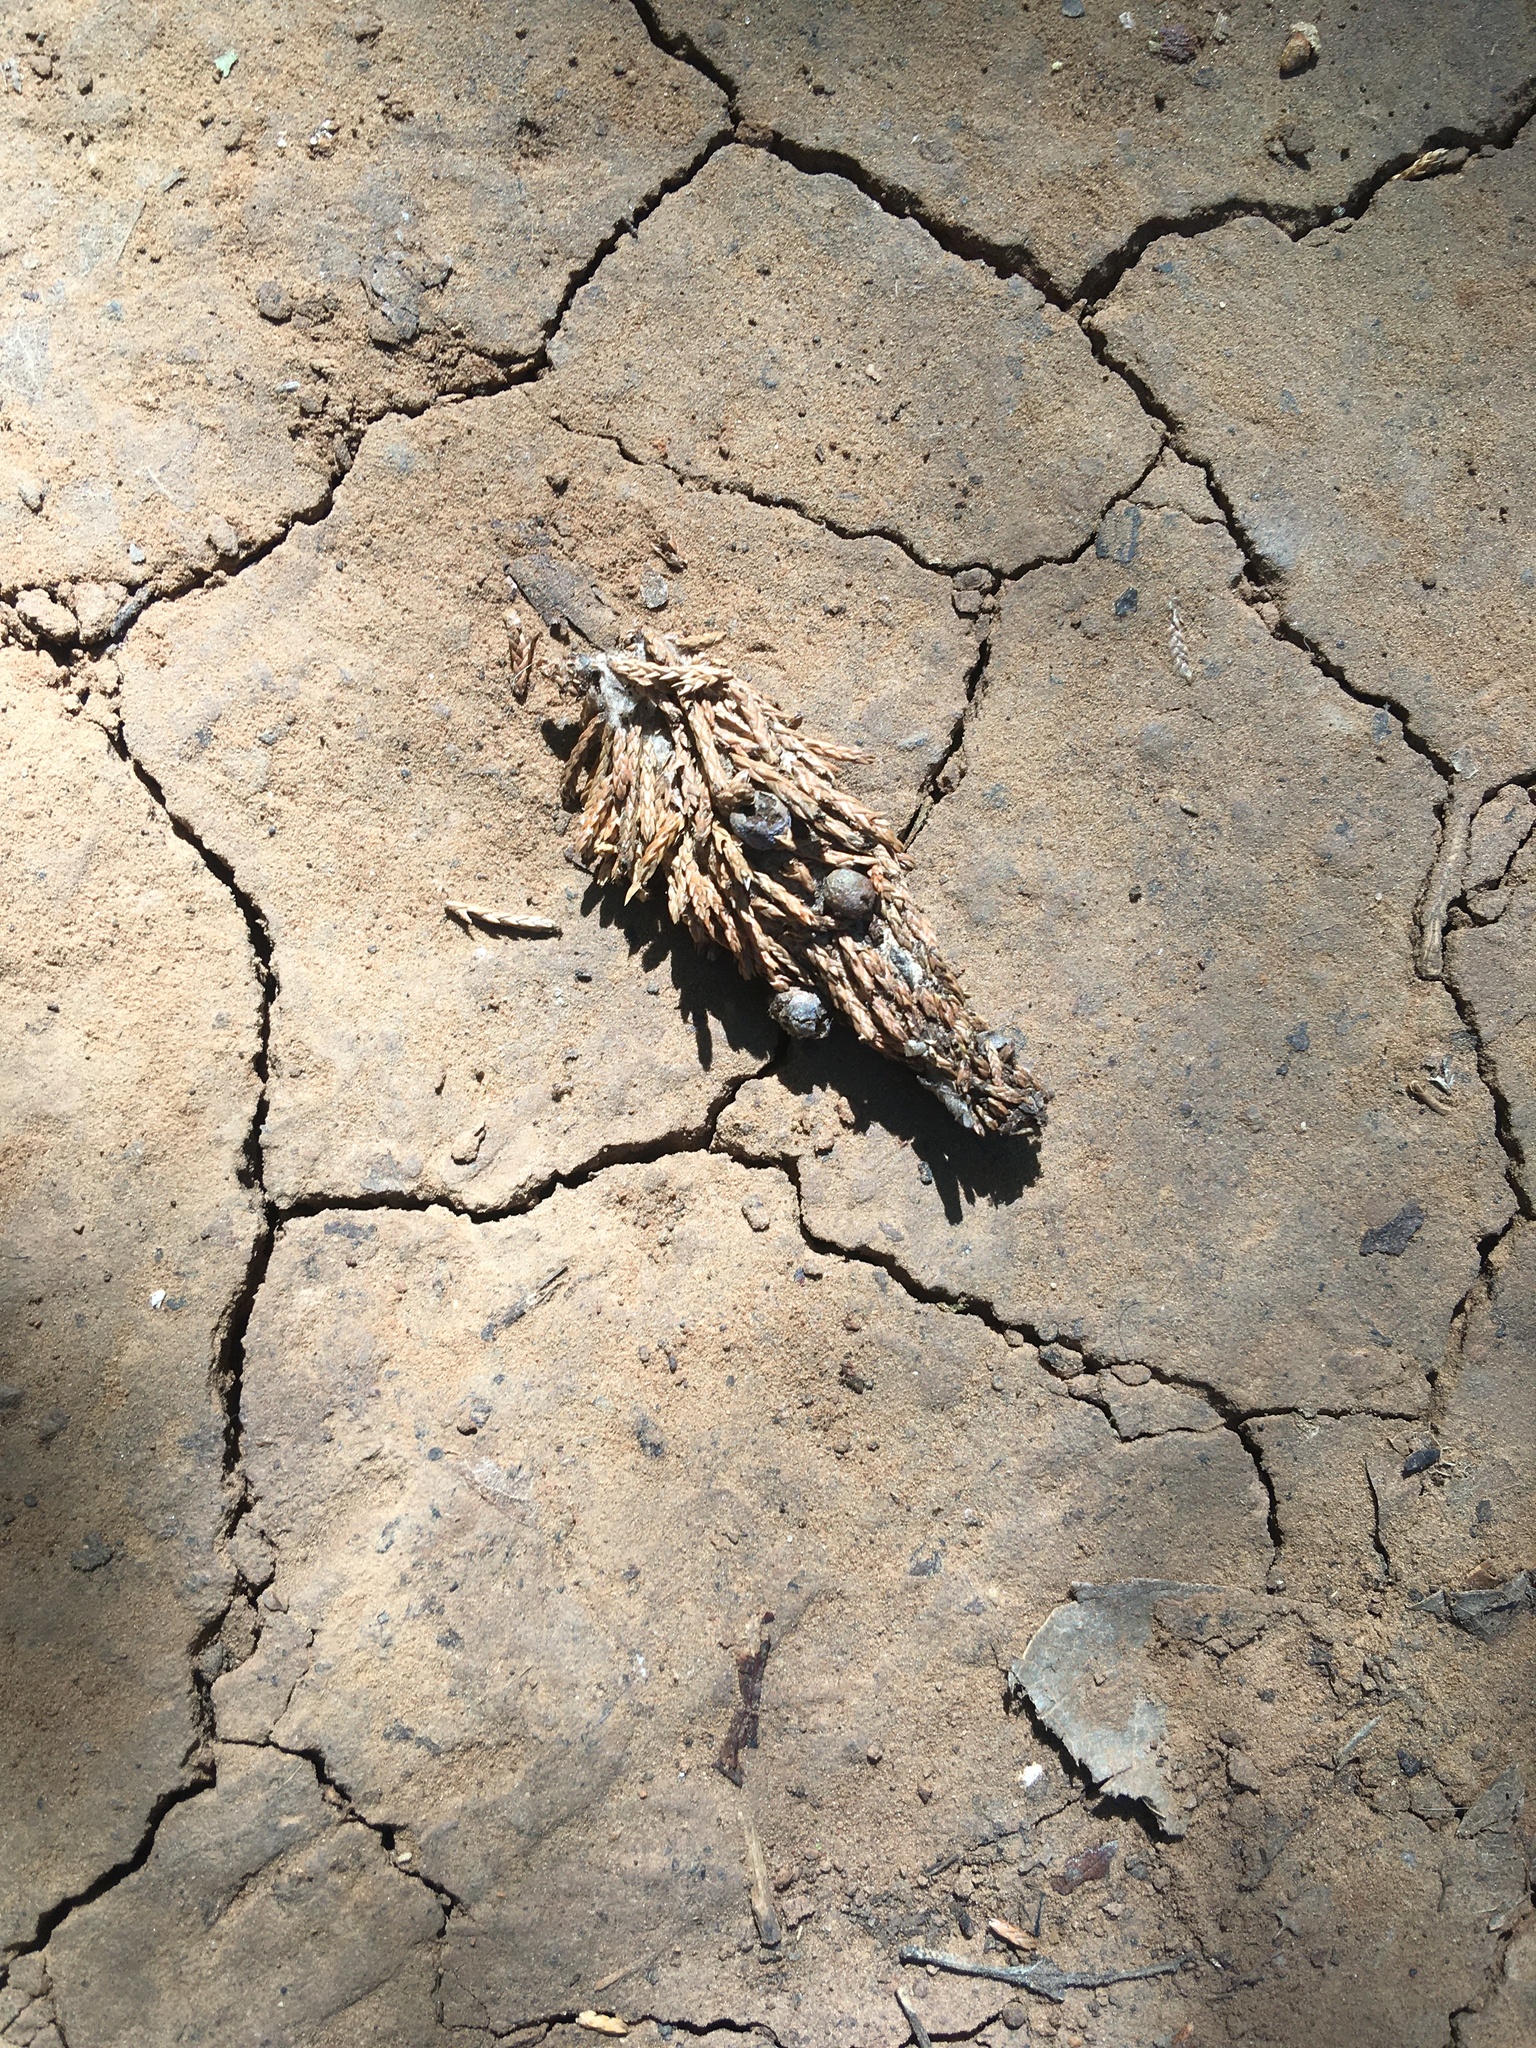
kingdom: Animalia
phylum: Arthropoda
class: Insecta
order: Lepidoptera
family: Psychidae
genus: Thyridopteryx
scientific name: Thyridopteryx ephemeraeformis
